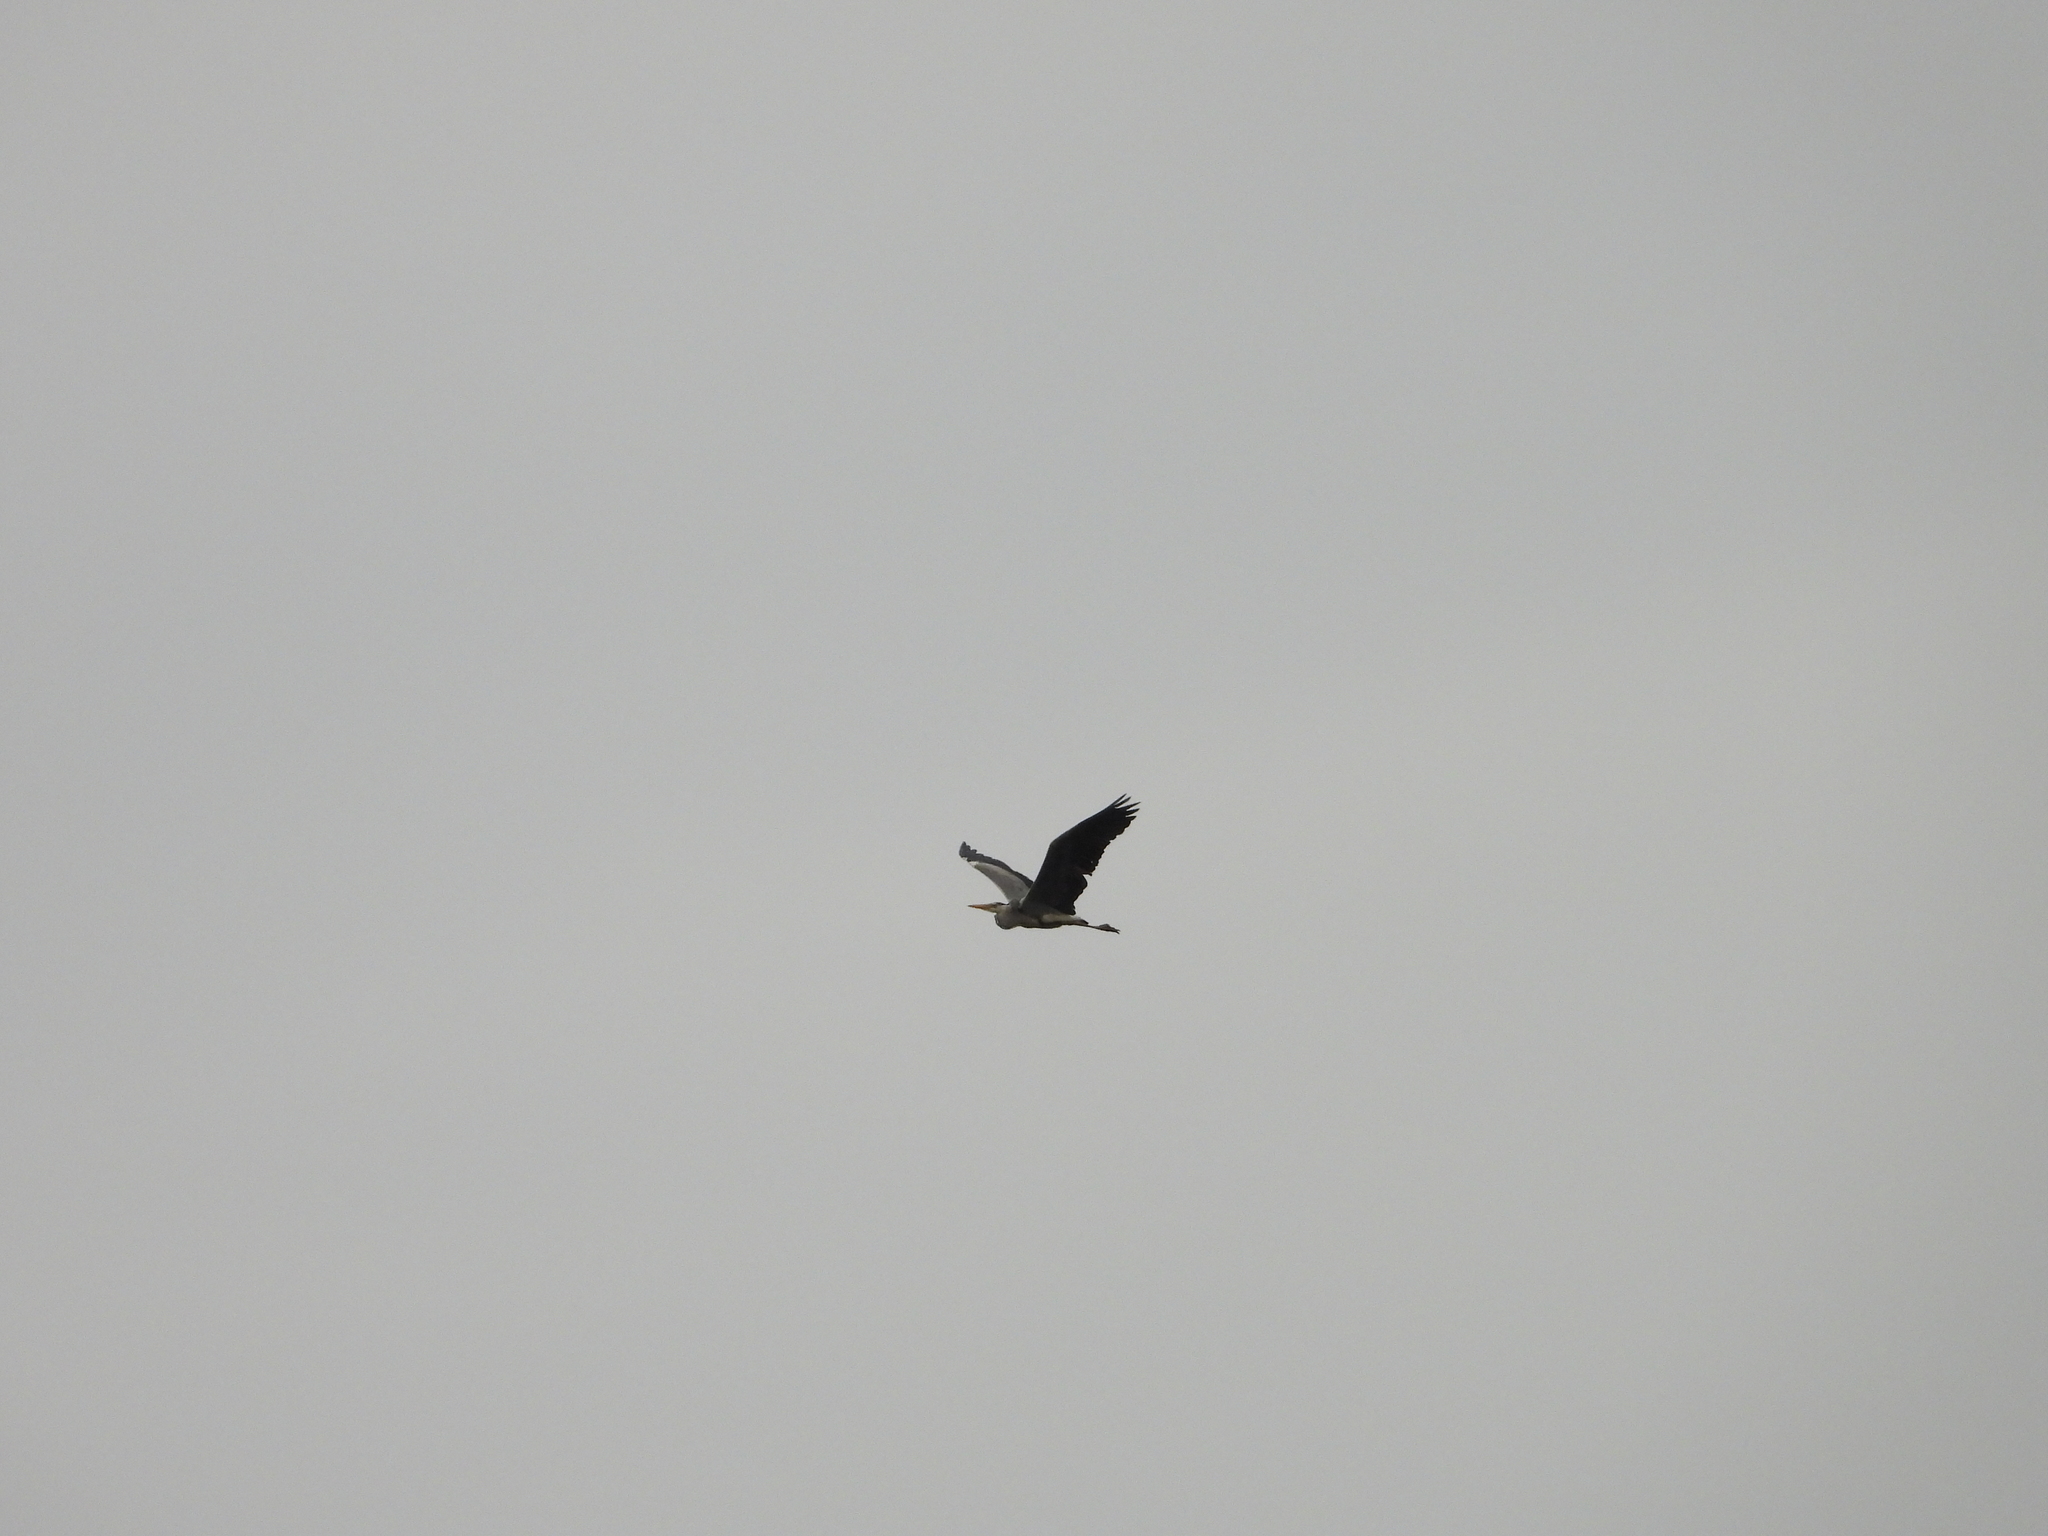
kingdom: Animalia
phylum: Chordata
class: Aves
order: Pelecaniformes
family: Ardeidae
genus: Ardea
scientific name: Ardea cinerea
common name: Grey heron
